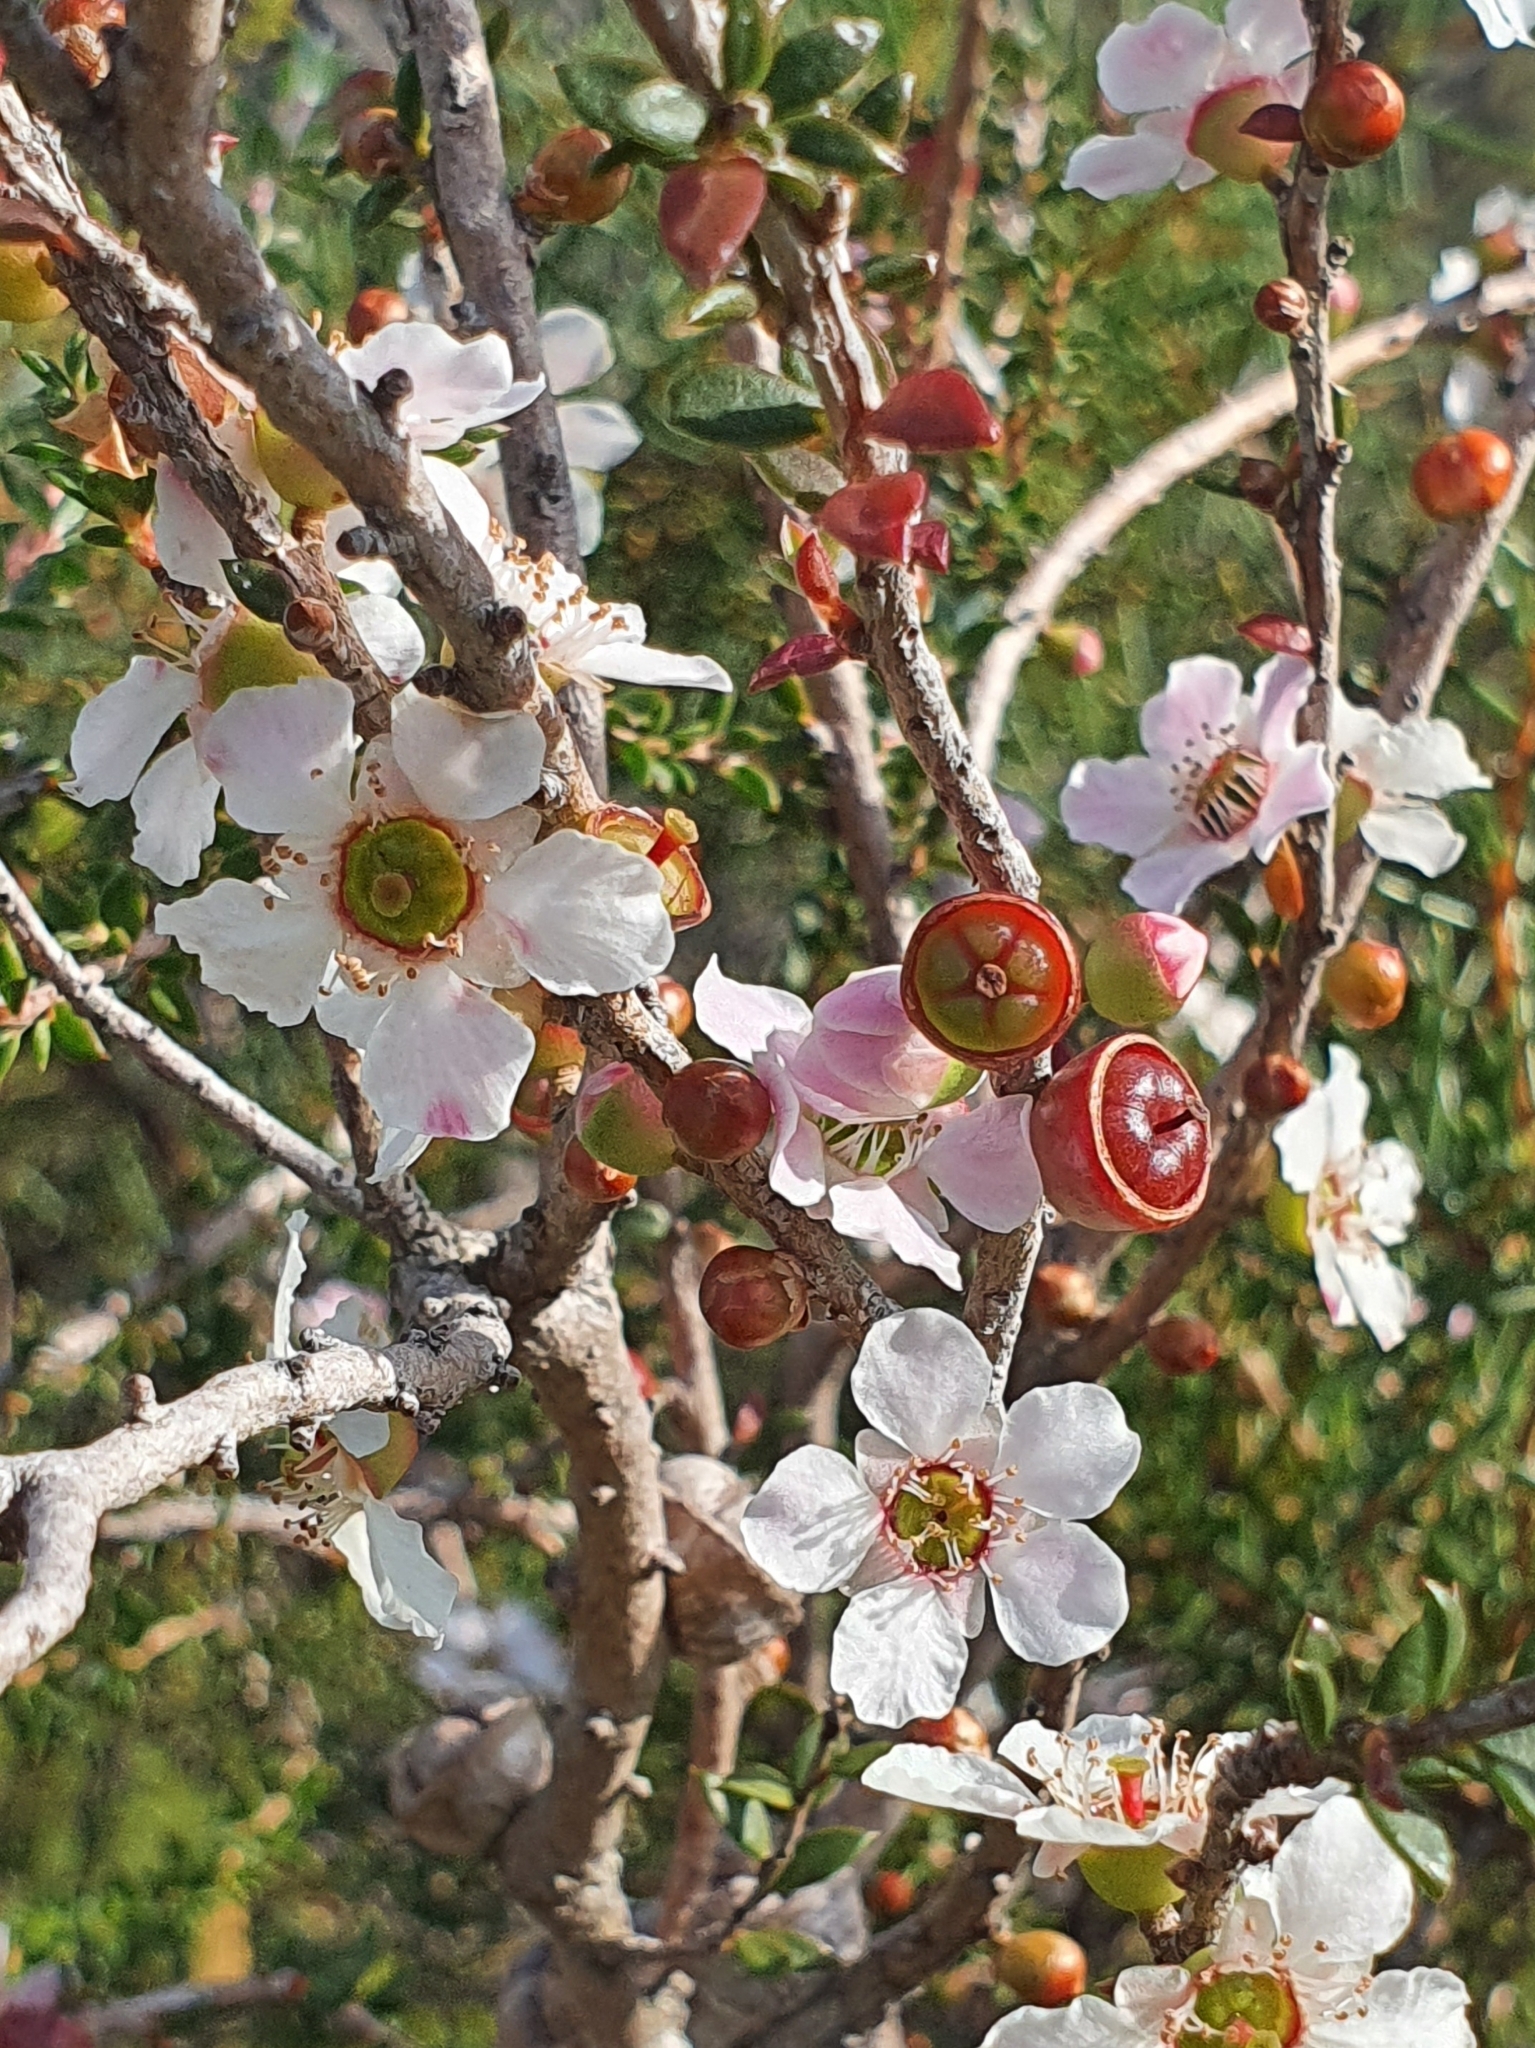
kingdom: Plantae
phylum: Tracheophyta
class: Magnoliopsida
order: Myrtales
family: Myrtaceae
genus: Leptospermum
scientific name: Leptospermum squarrosum
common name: Peach-blossom teatree
